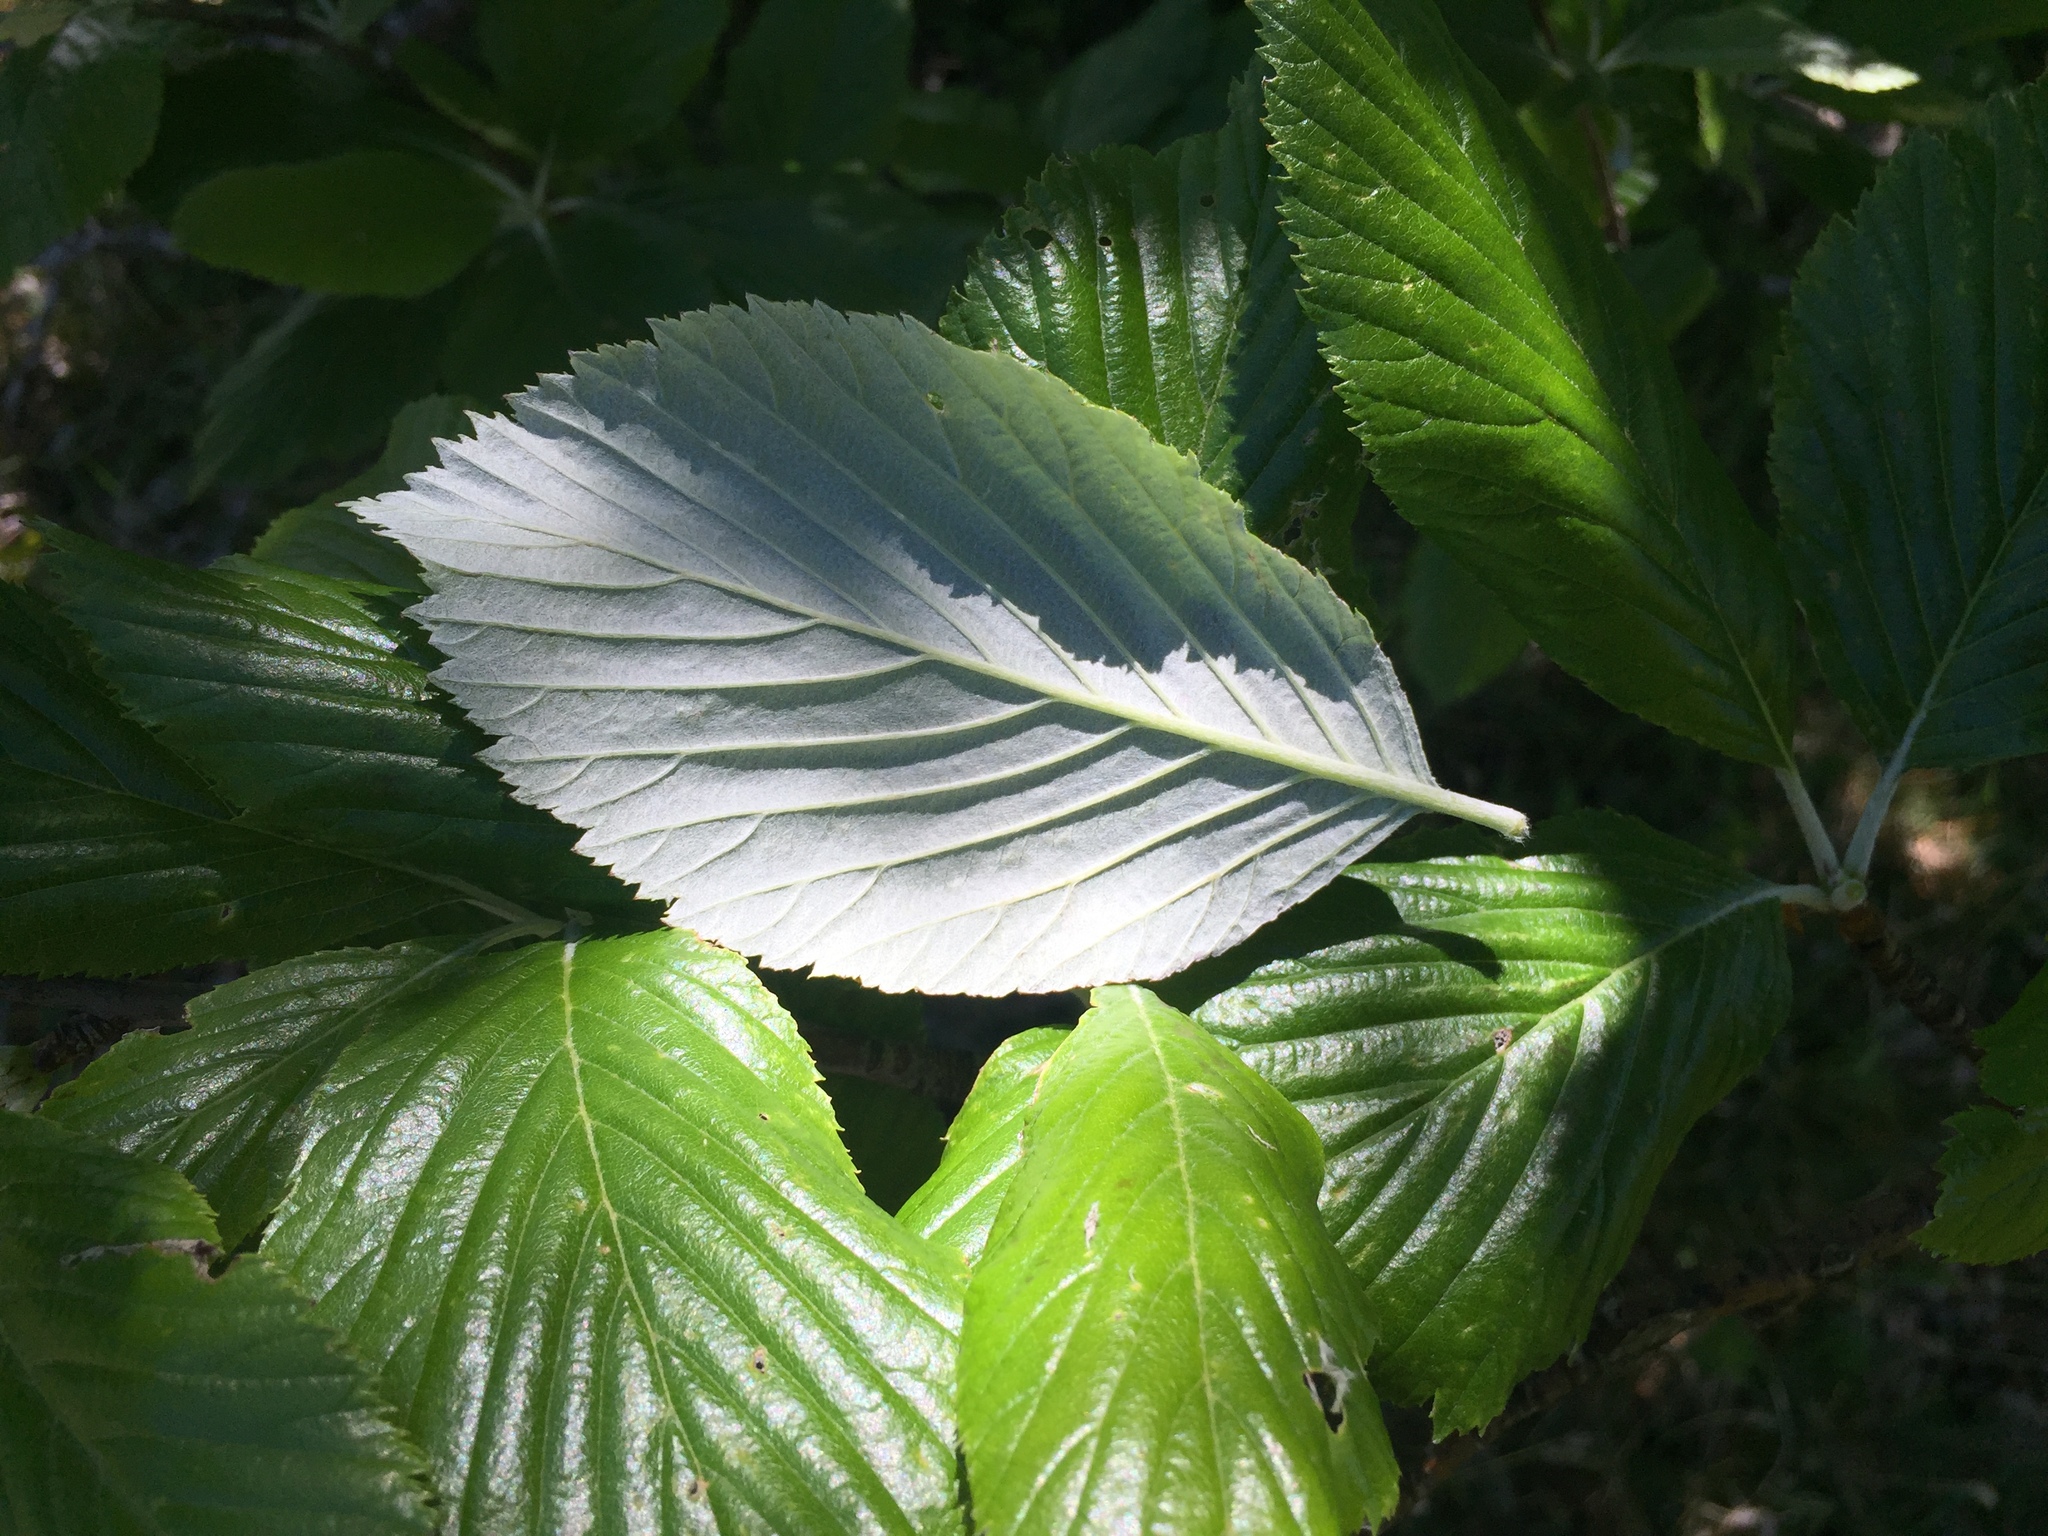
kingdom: Plantae
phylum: Tracheophyta
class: Magnoliopsida
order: Rosales
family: Rosaceae
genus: Aria
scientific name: Aria edulis
